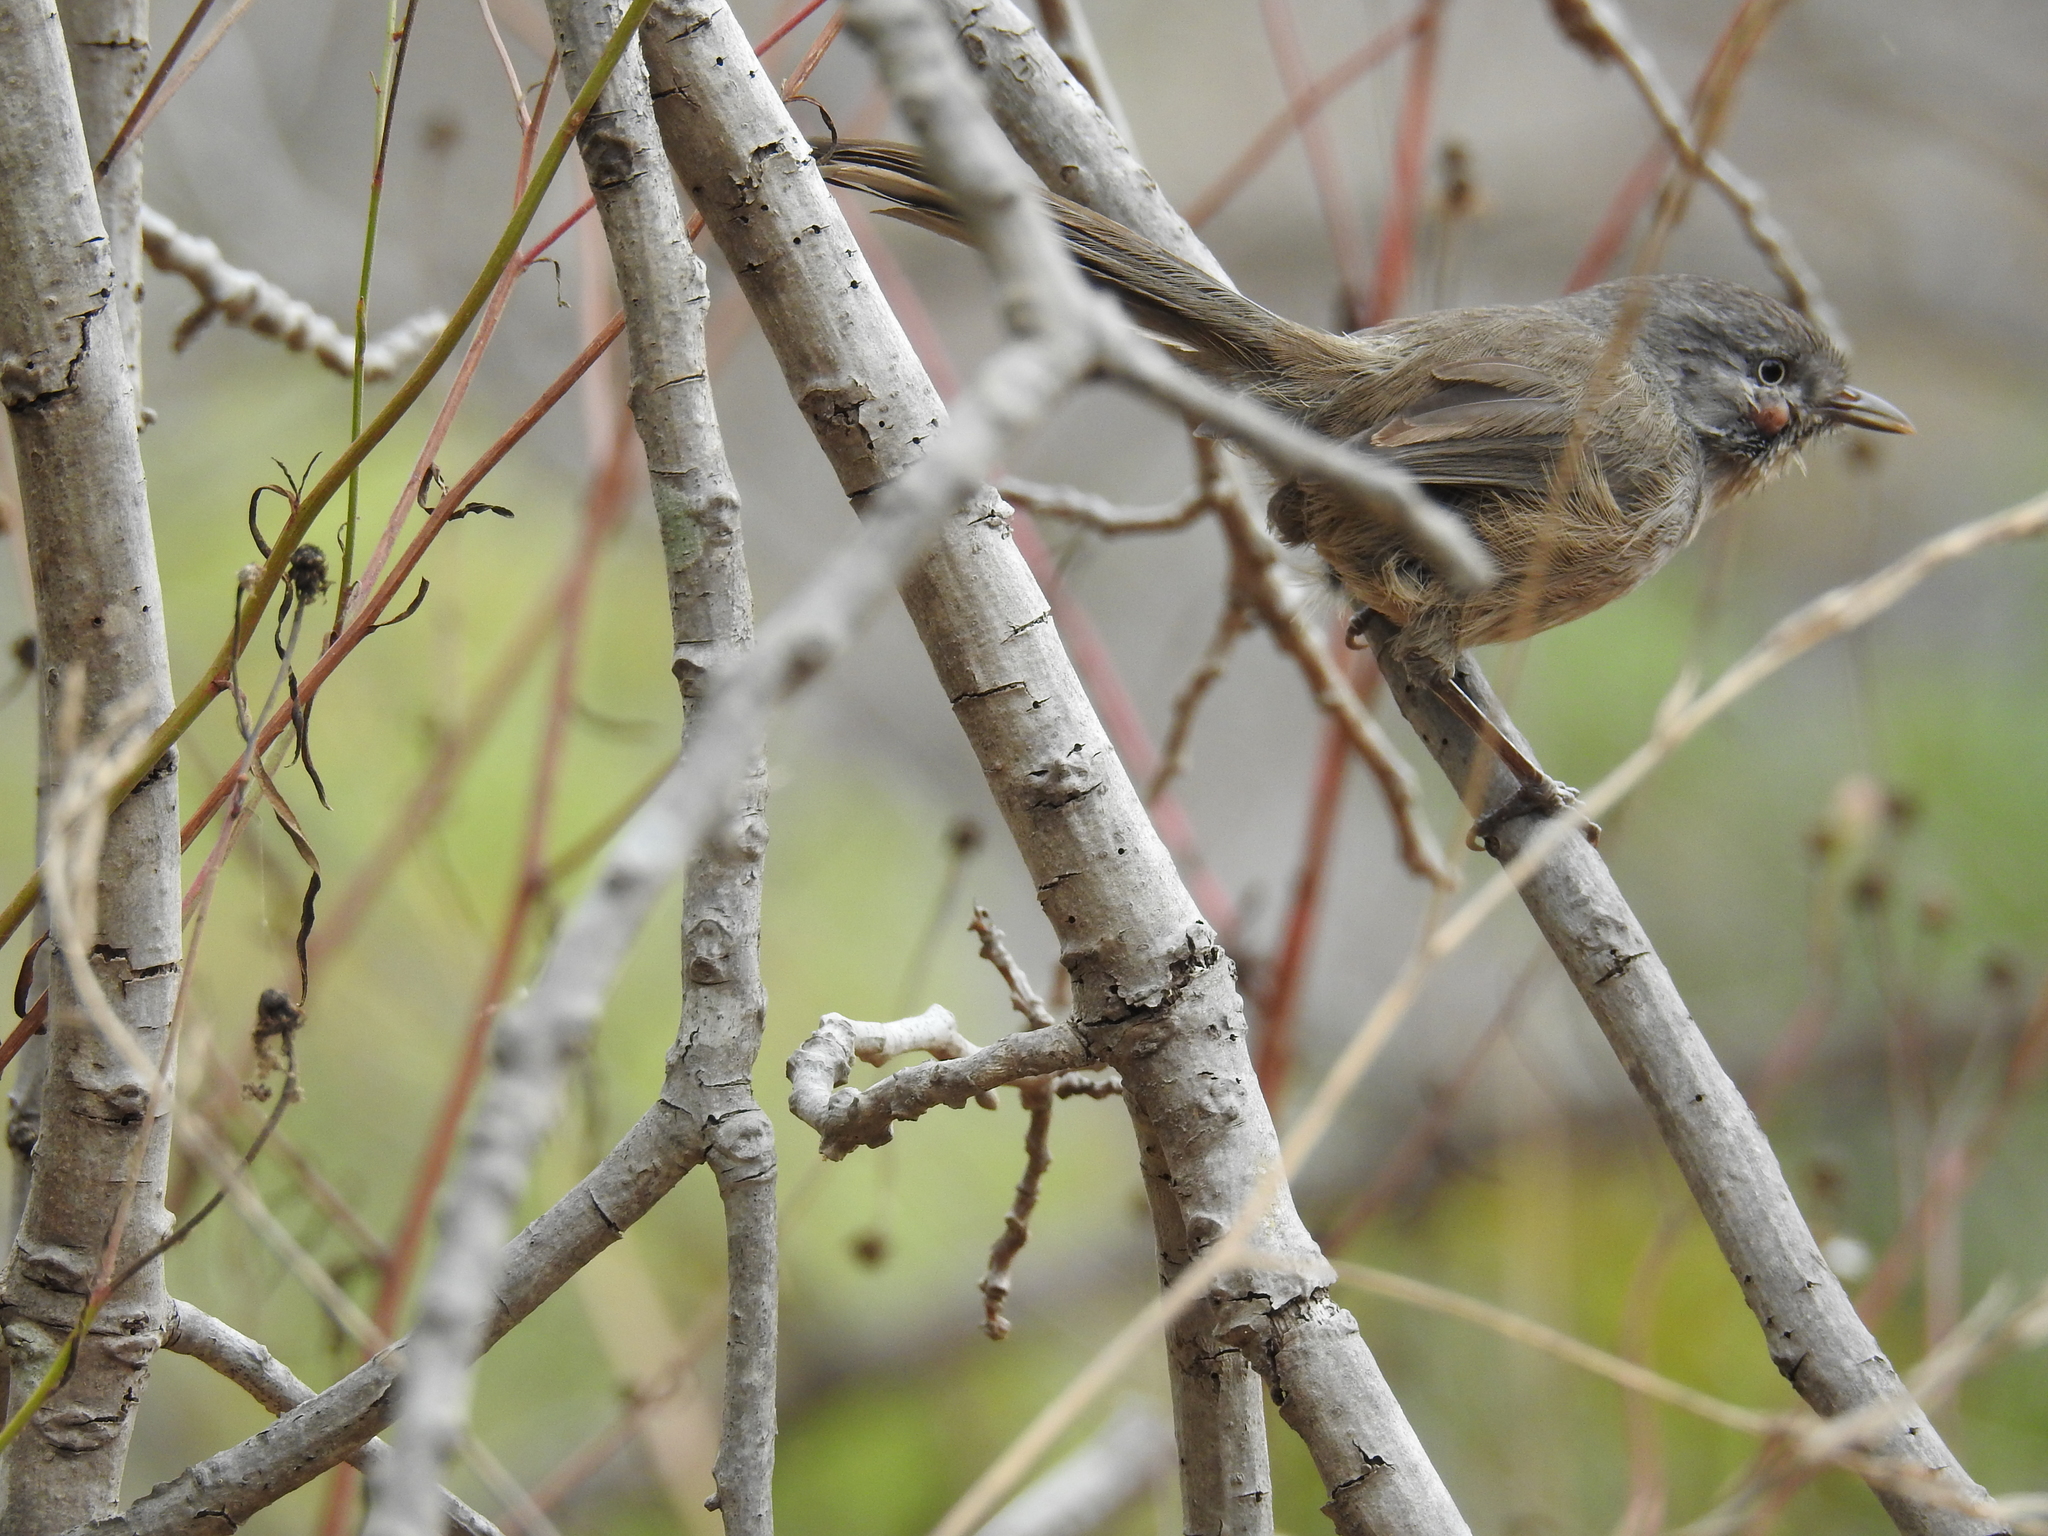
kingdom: Animalia
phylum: Chordata
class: Aves
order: Passeriformes
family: Sylviidae
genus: Chamaea
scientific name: Chamaea fasciata
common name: Wrentit
